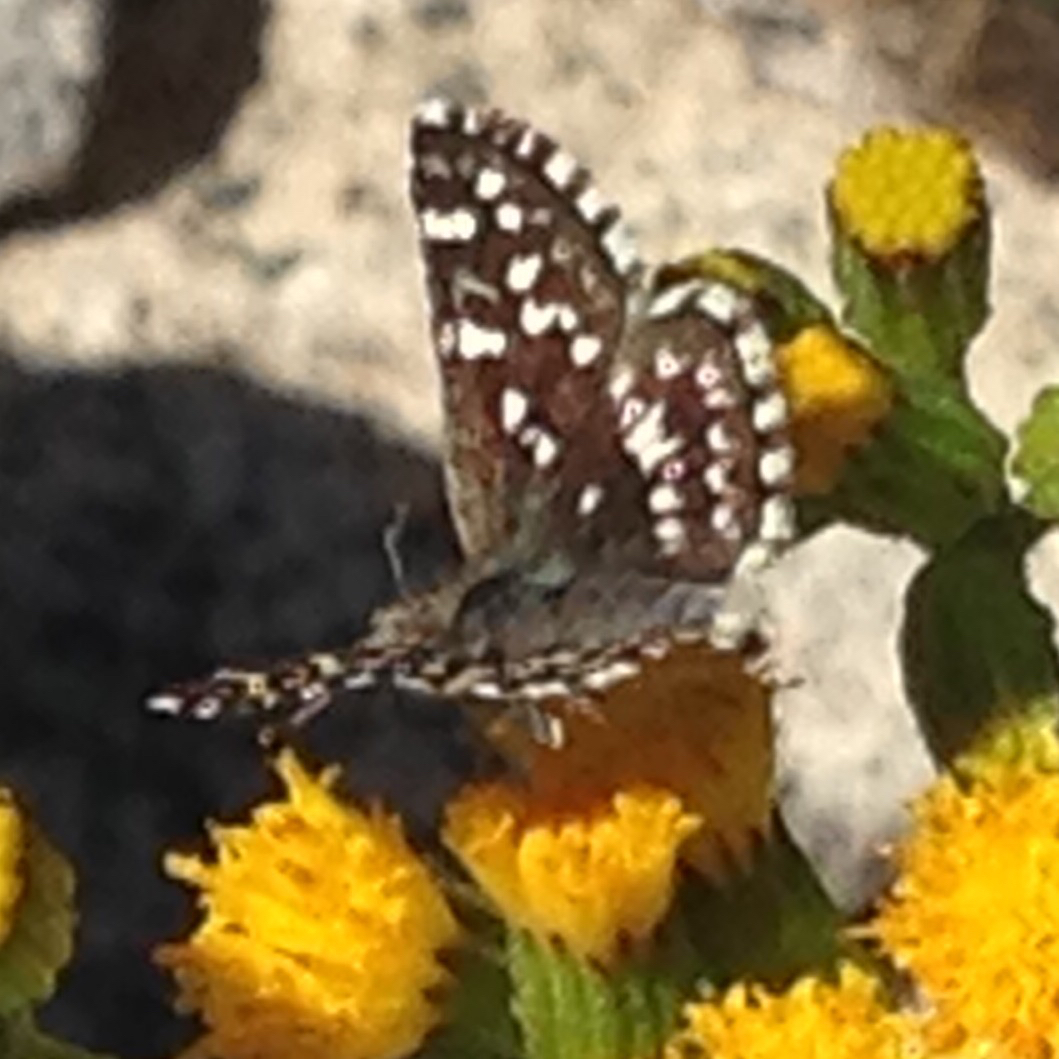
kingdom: Animalia
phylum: Arthropoda
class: Insecta
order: Lepidoptera
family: Hesperiidae
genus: Pyrgus
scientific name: Pyrgus ruralis
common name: Two-banded checkered-skipper
